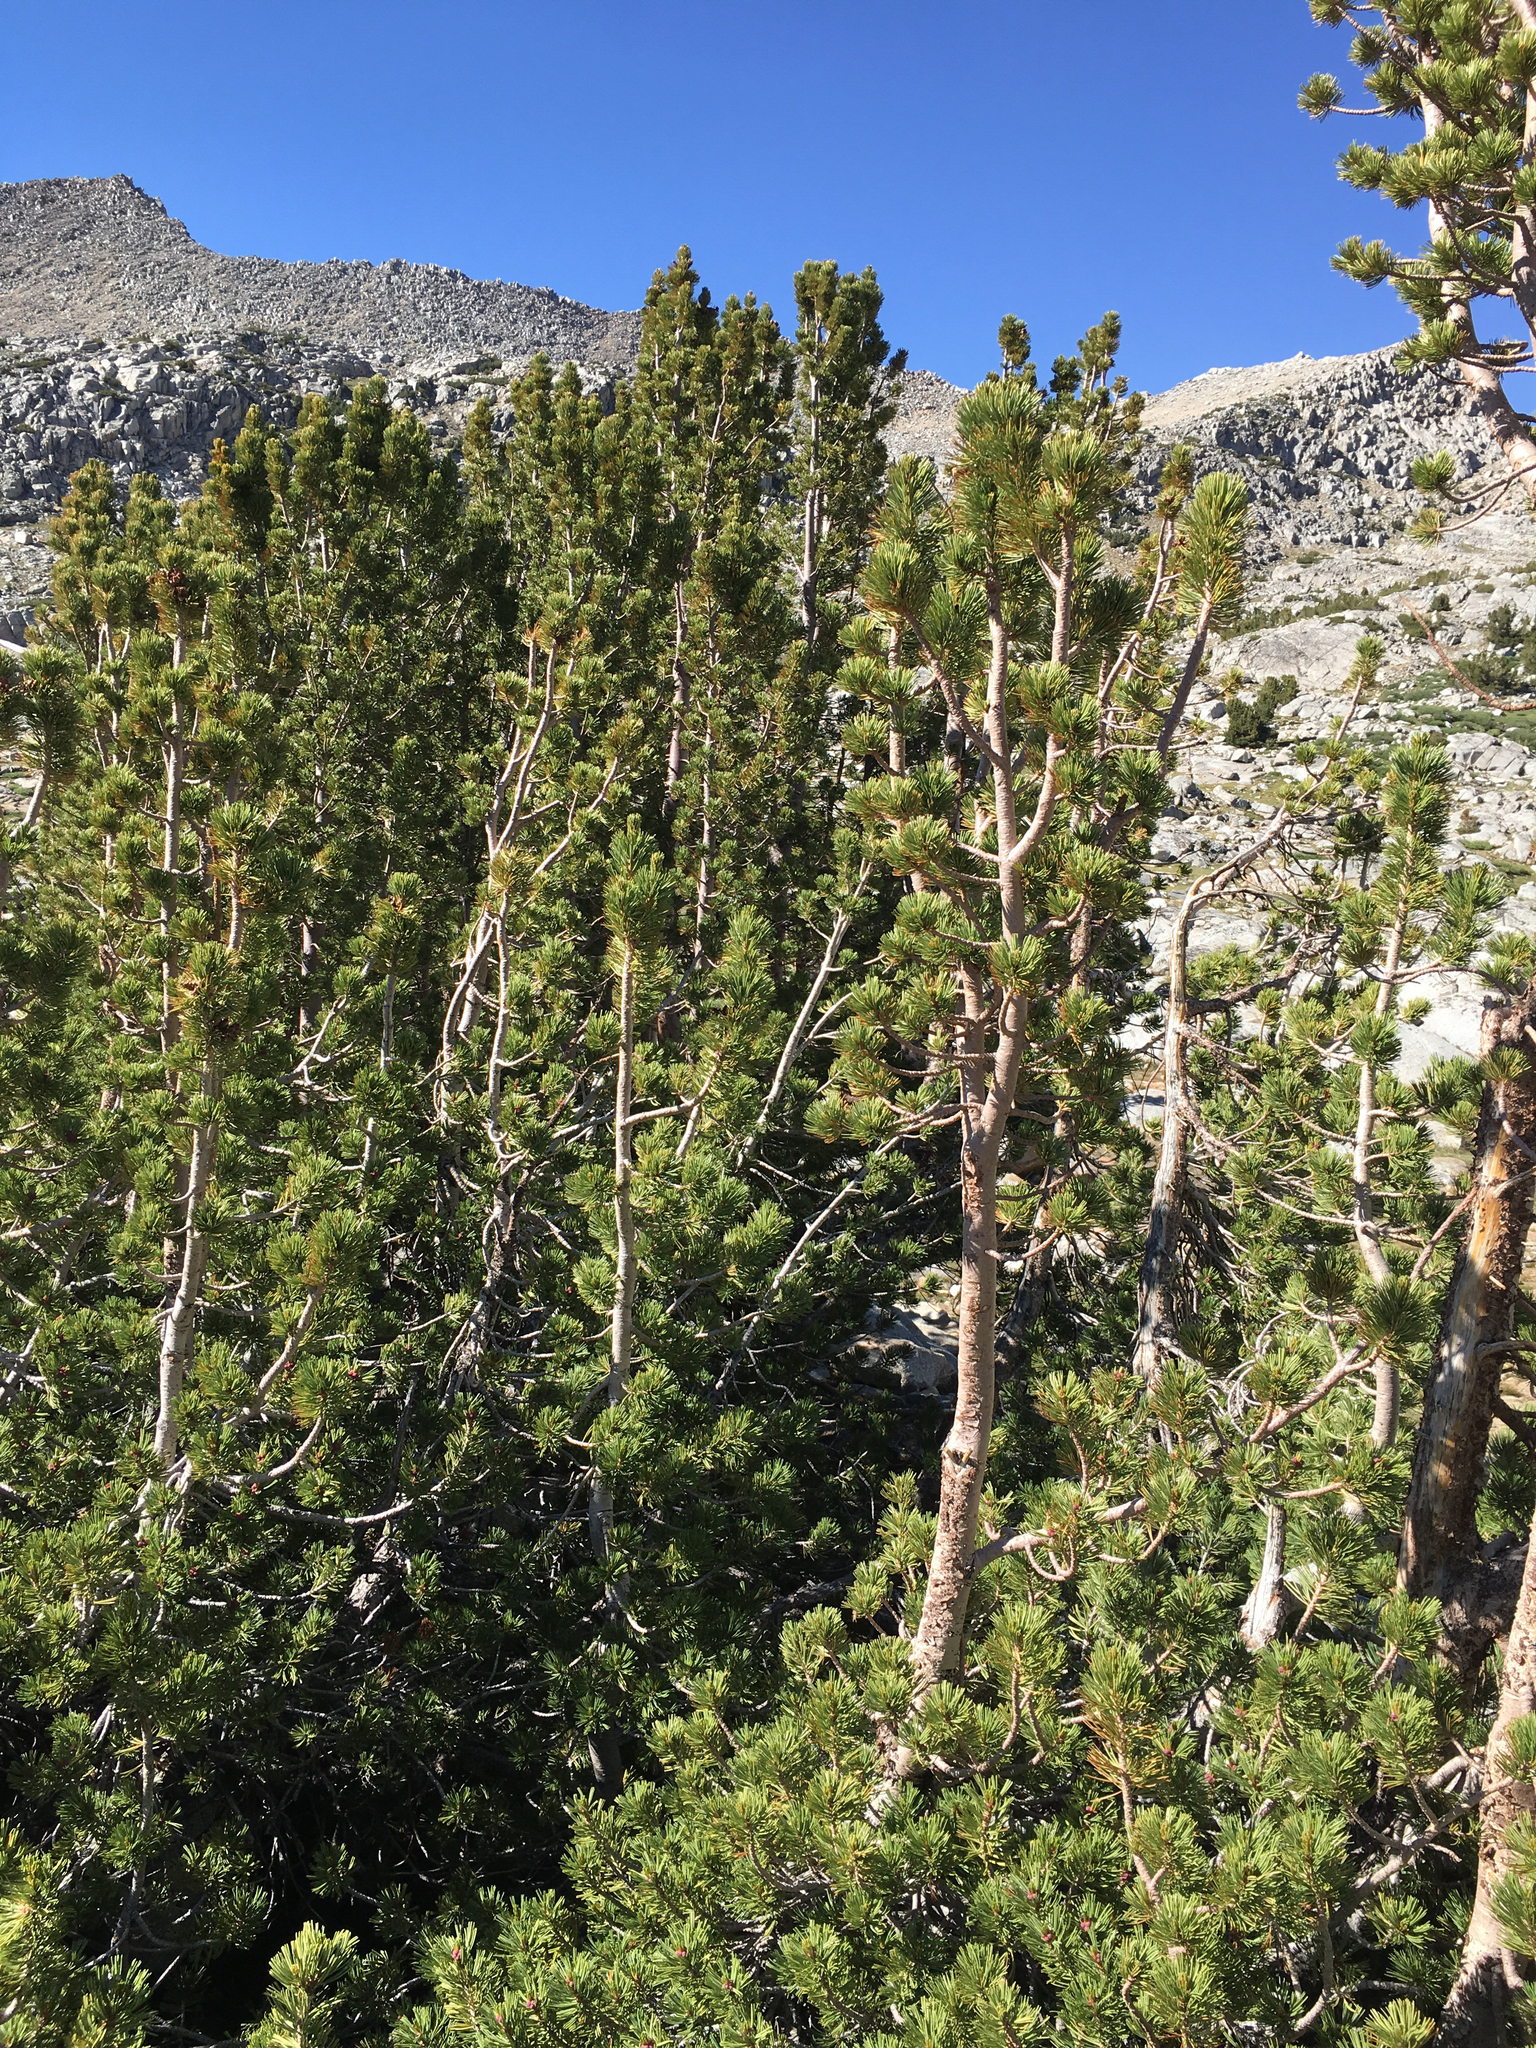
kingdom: Plantae
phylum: Tracheophyta
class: Pinopsida
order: Pinales
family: Pinaceae
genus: Pinus
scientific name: Pinus albicaulis
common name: Whitebark pine
